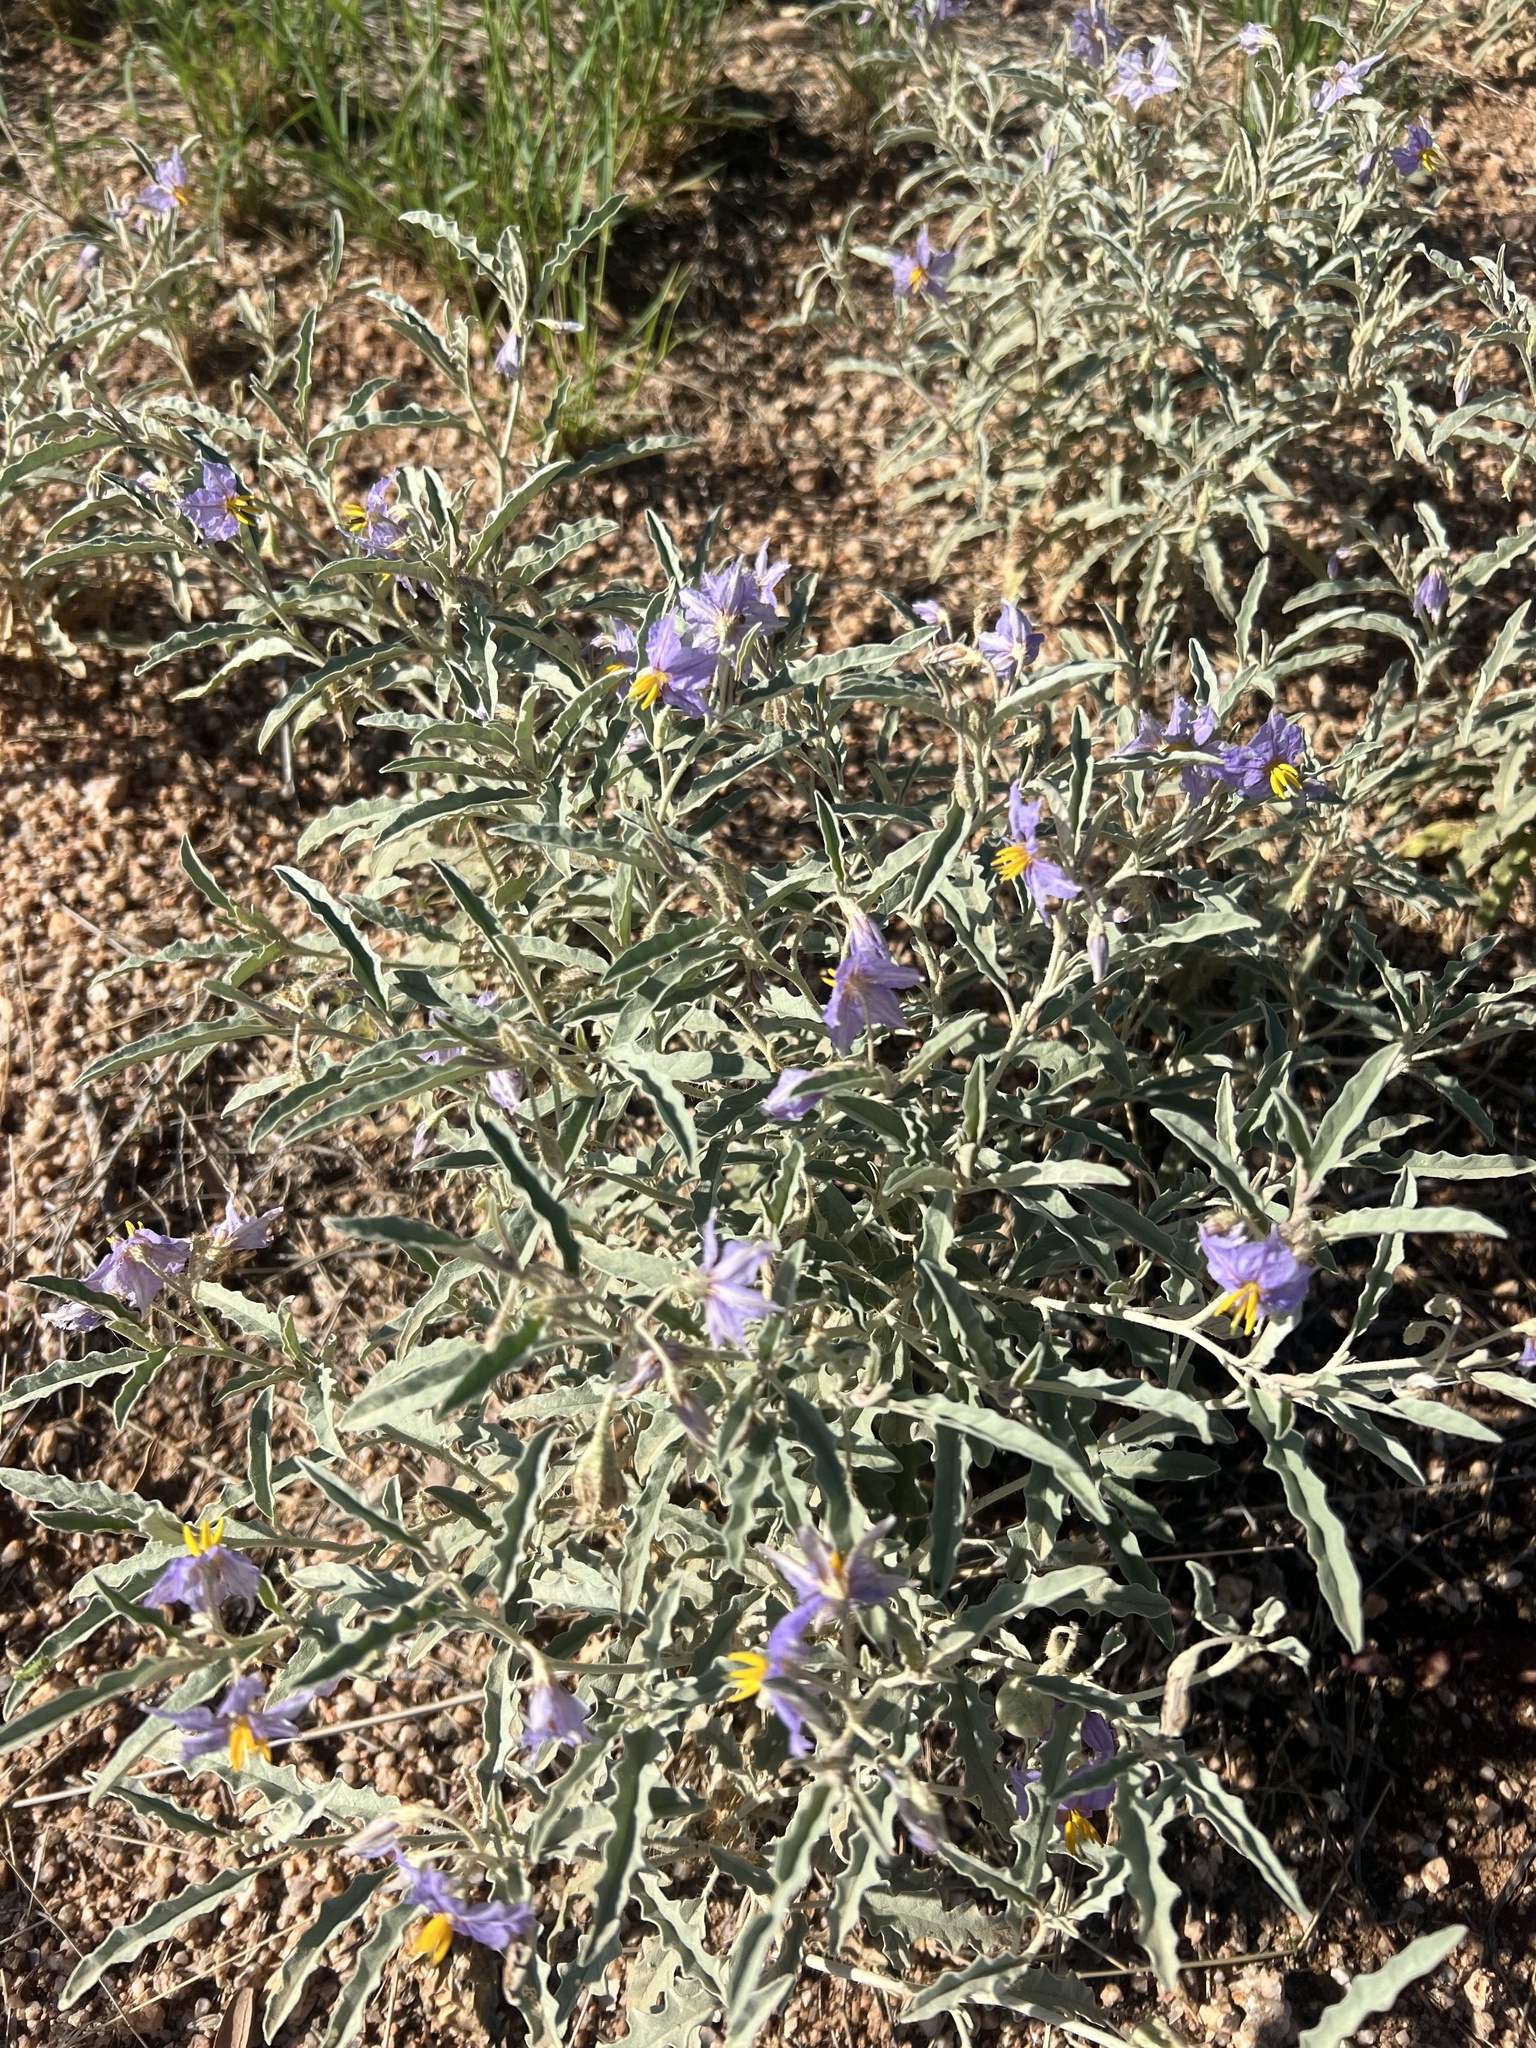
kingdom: Plantae
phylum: Tracheophyta
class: Magnoliopsida
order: Solanales
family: Solanaceae
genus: Solanum
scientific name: Solanum elaeagnifolium
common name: Silverleaf nightshade
